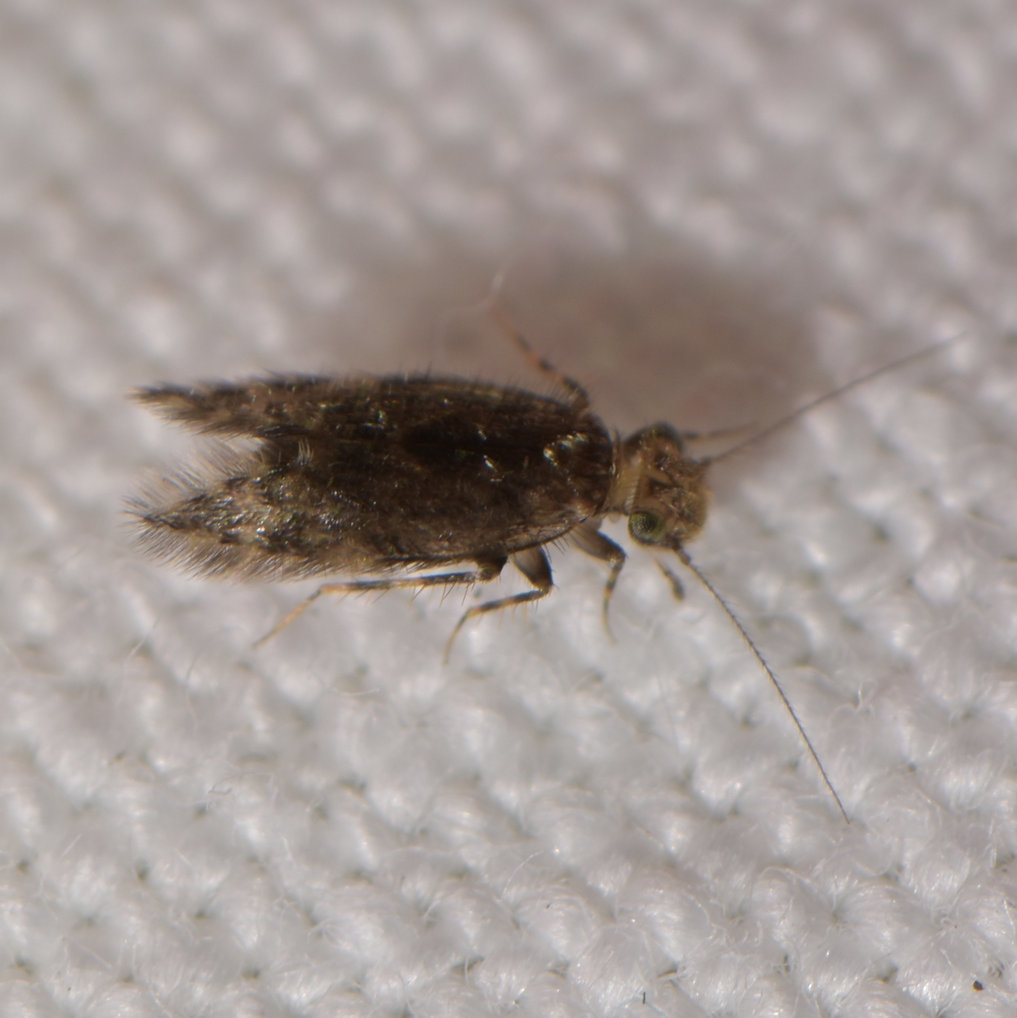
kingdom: Animalia
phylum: Arthropoda
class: Insecta
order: Psocodea
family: Lepidopsocidae
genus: Echmepteryx
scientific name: Echmepteryx hageni
